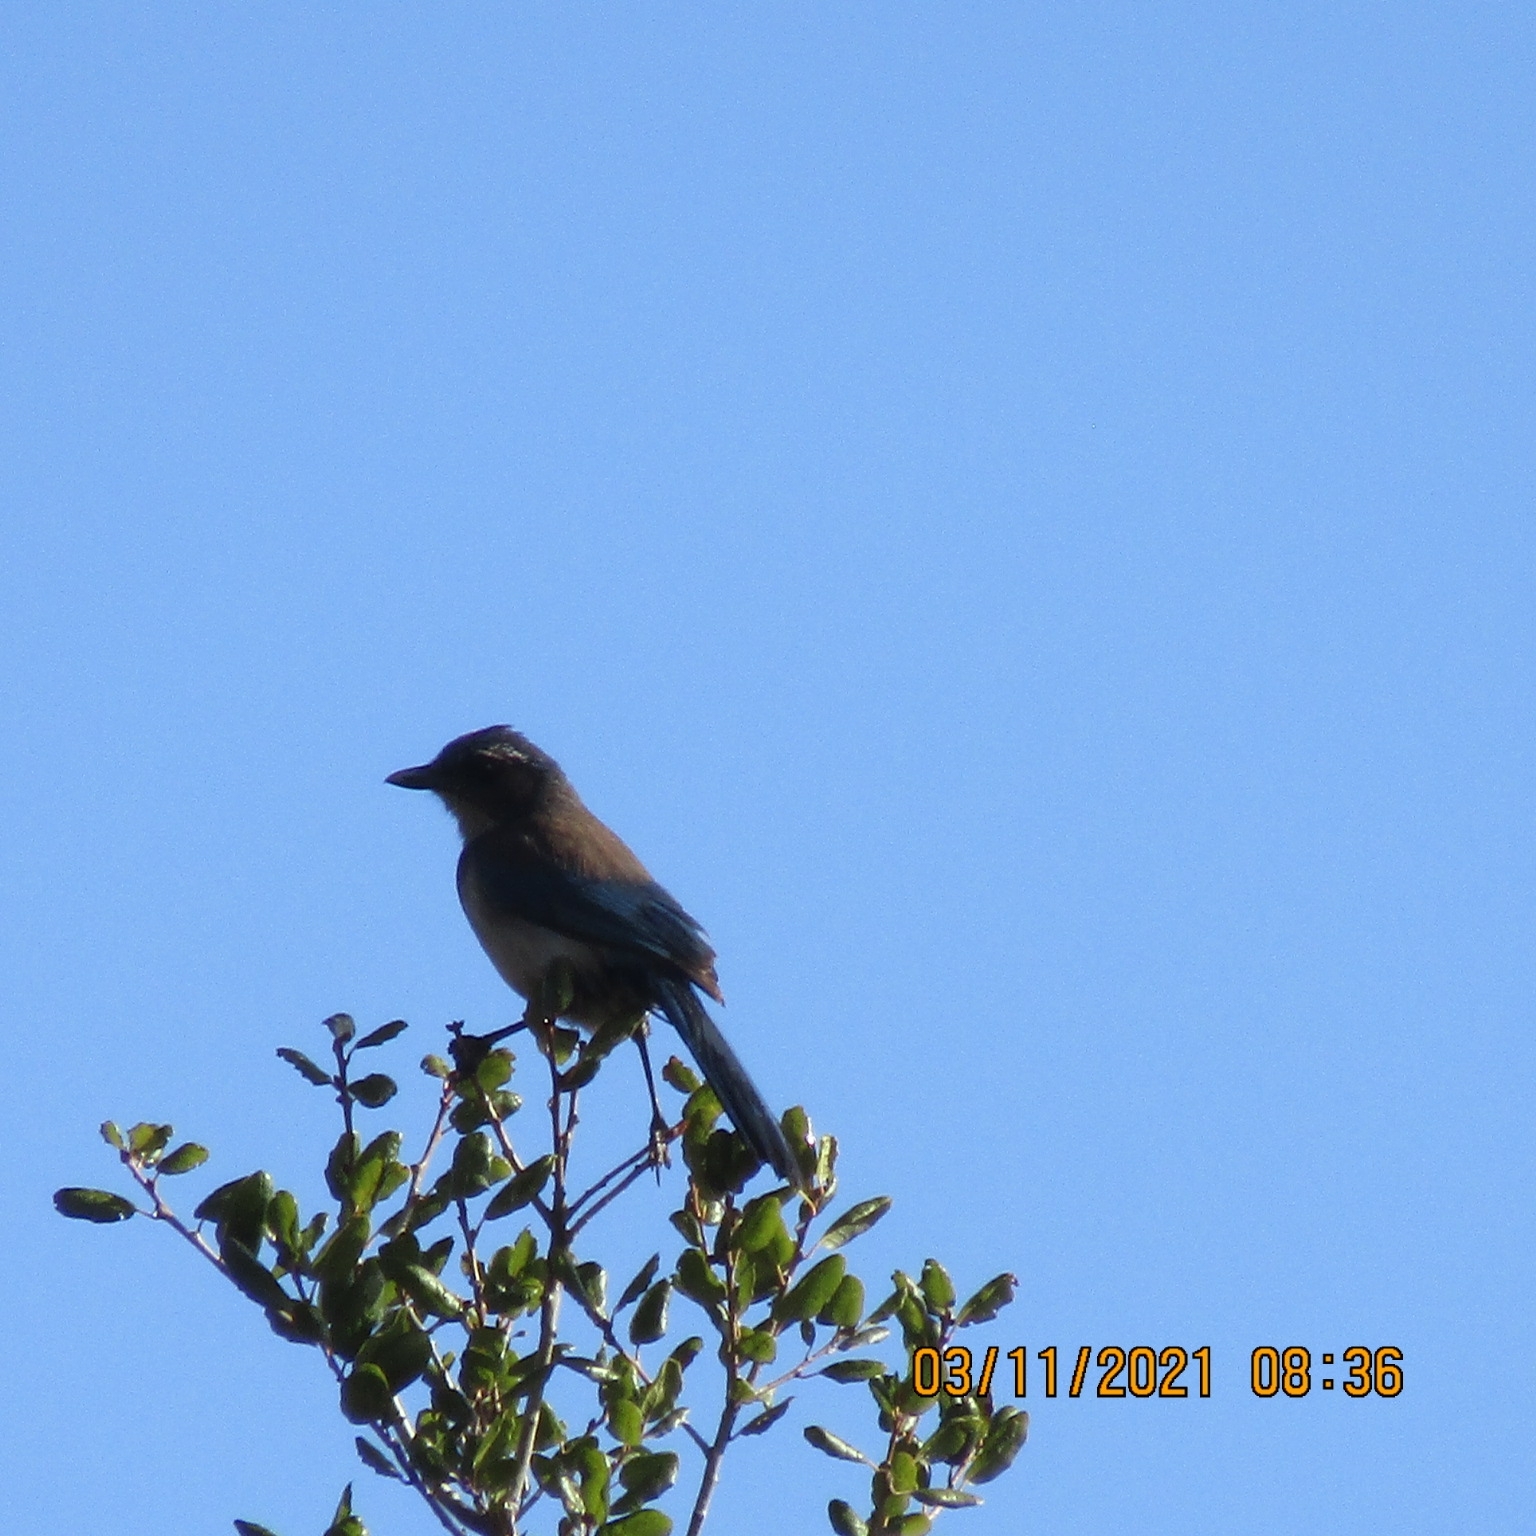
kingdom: Animalia
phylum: Chordata
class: Aves
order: Passeriformes
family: Corvidae
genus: Aphelocoma
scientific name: Aphelocoma californica
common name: California scrub-jay
